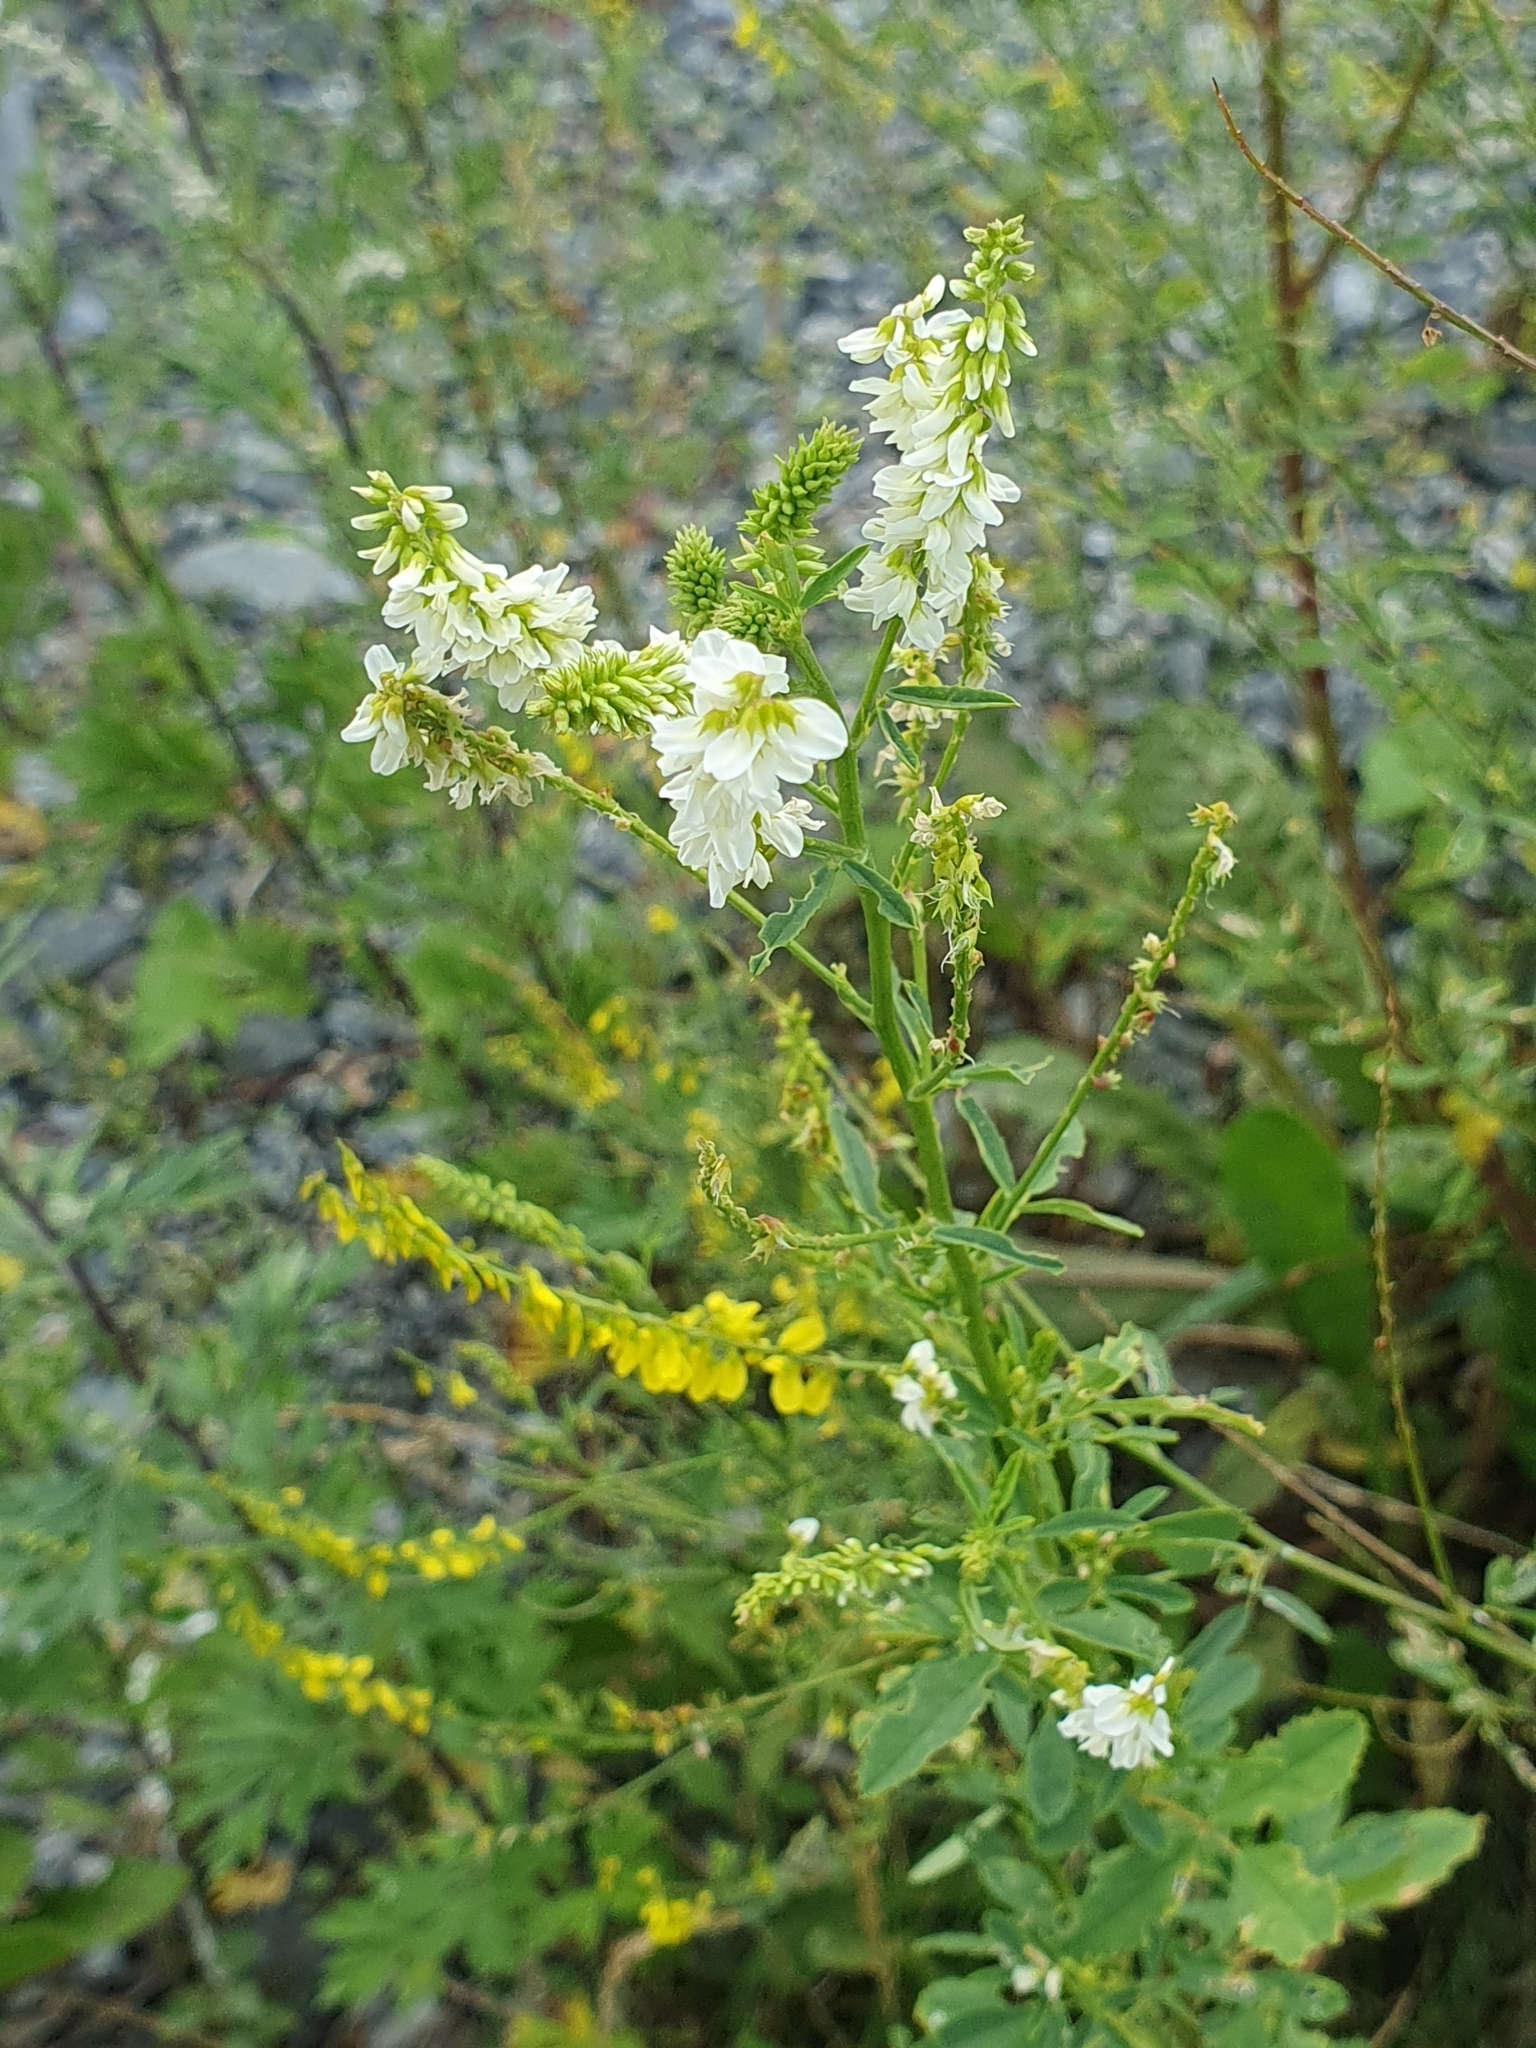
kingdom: Plantae
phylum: Tracheophyta
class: Magnoliopsida
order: Fabales
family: Fabaceae
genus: Melilotus
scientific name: Melilotus albus
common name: White melilot
